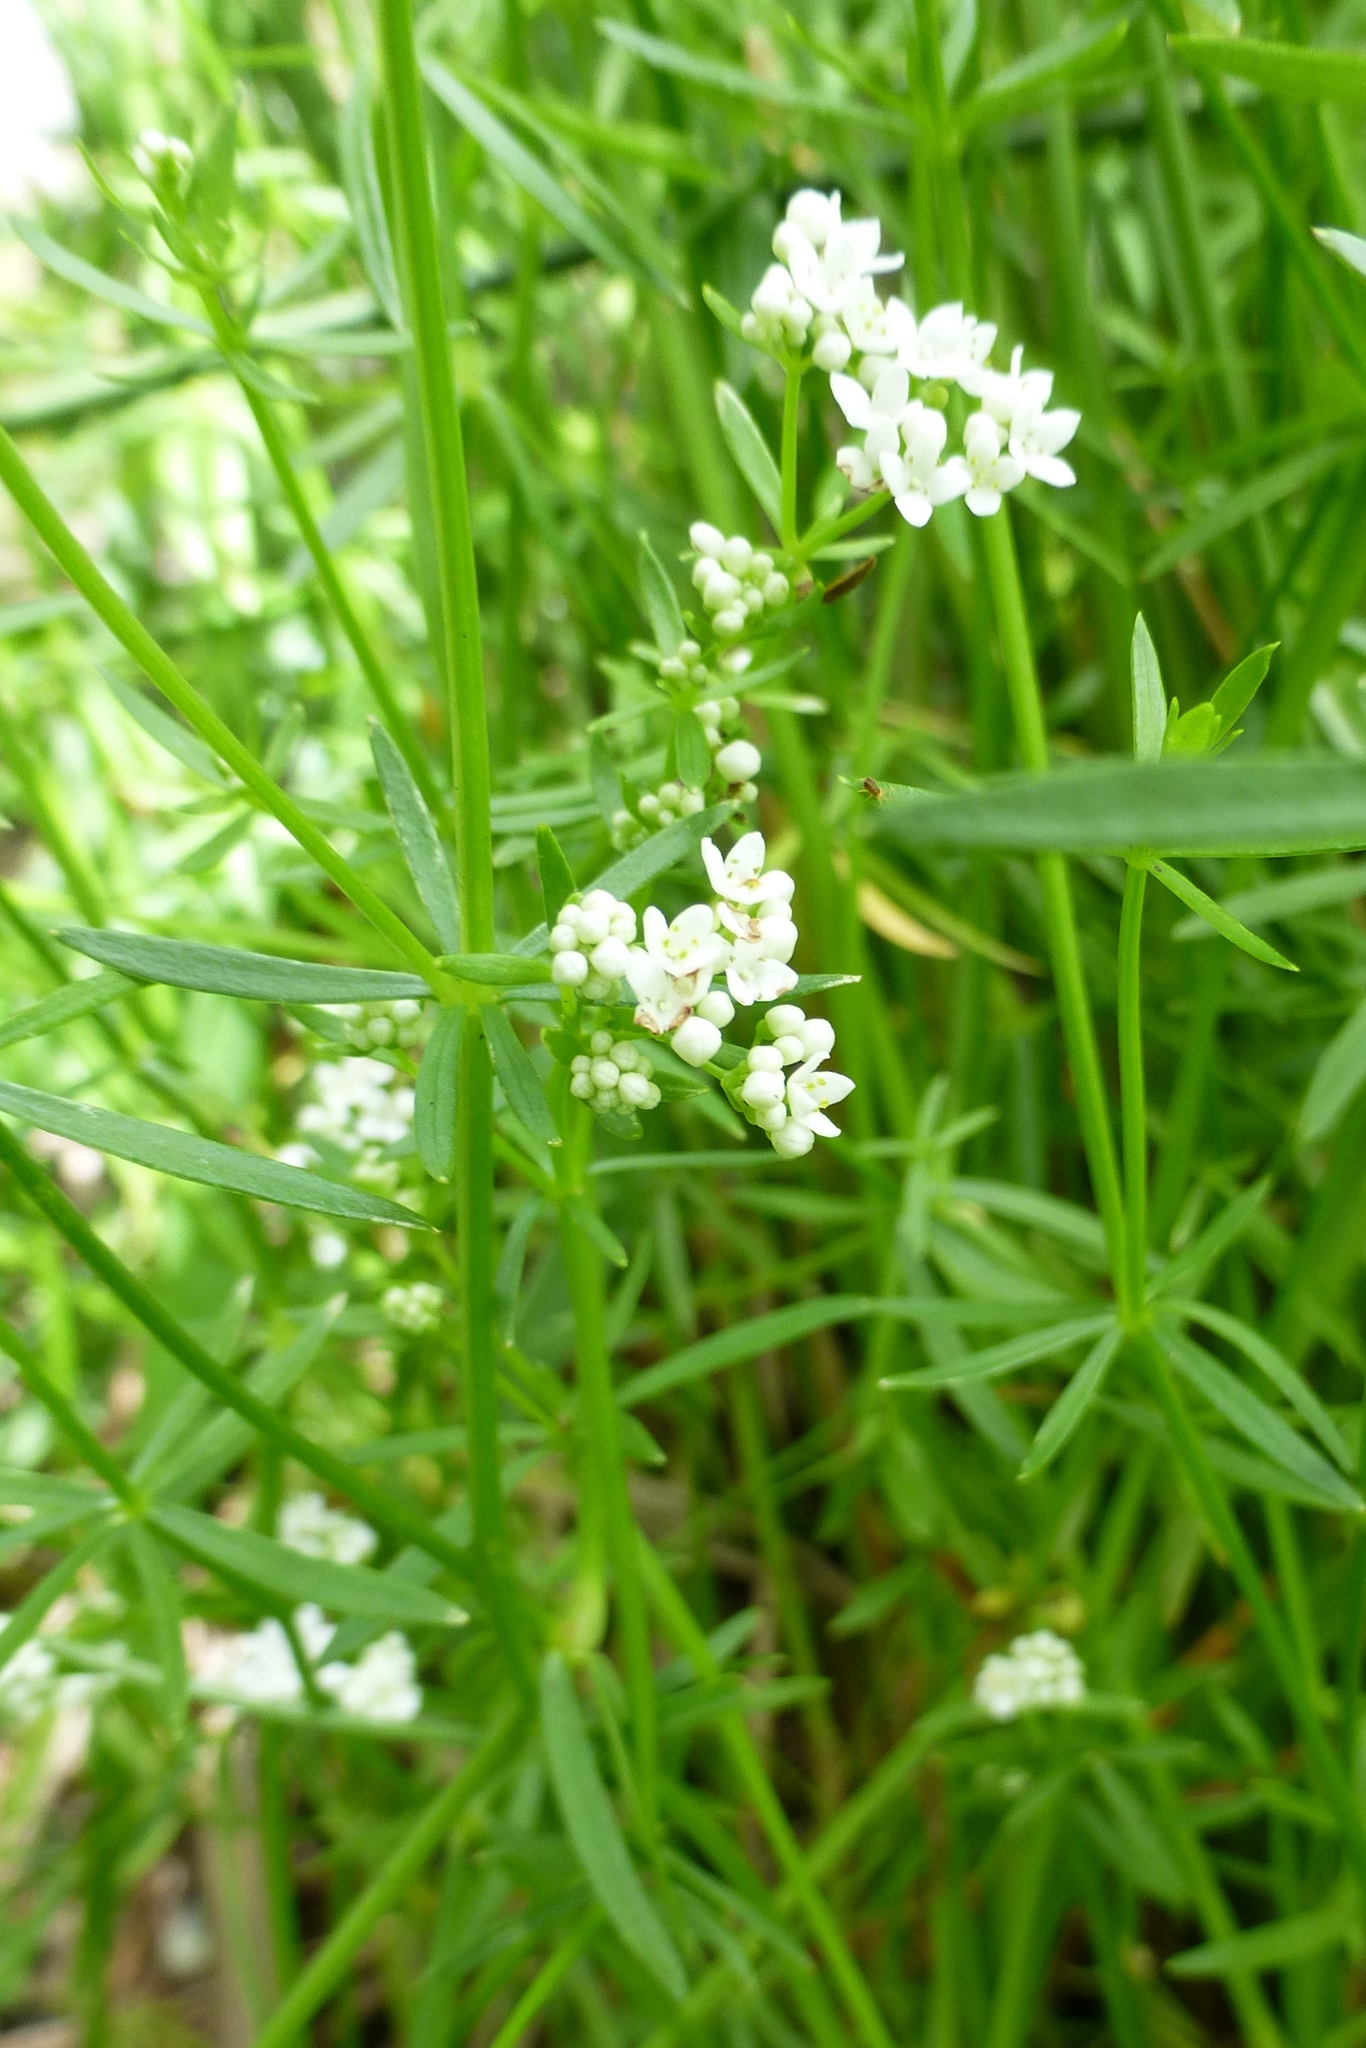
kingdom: Plantae
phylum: Tracheophyta
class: Magnoliopsida
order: Gentianales
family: Rubiaceae
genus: Galium
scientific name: Galium palustre
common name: Common marsh-bedstraw
